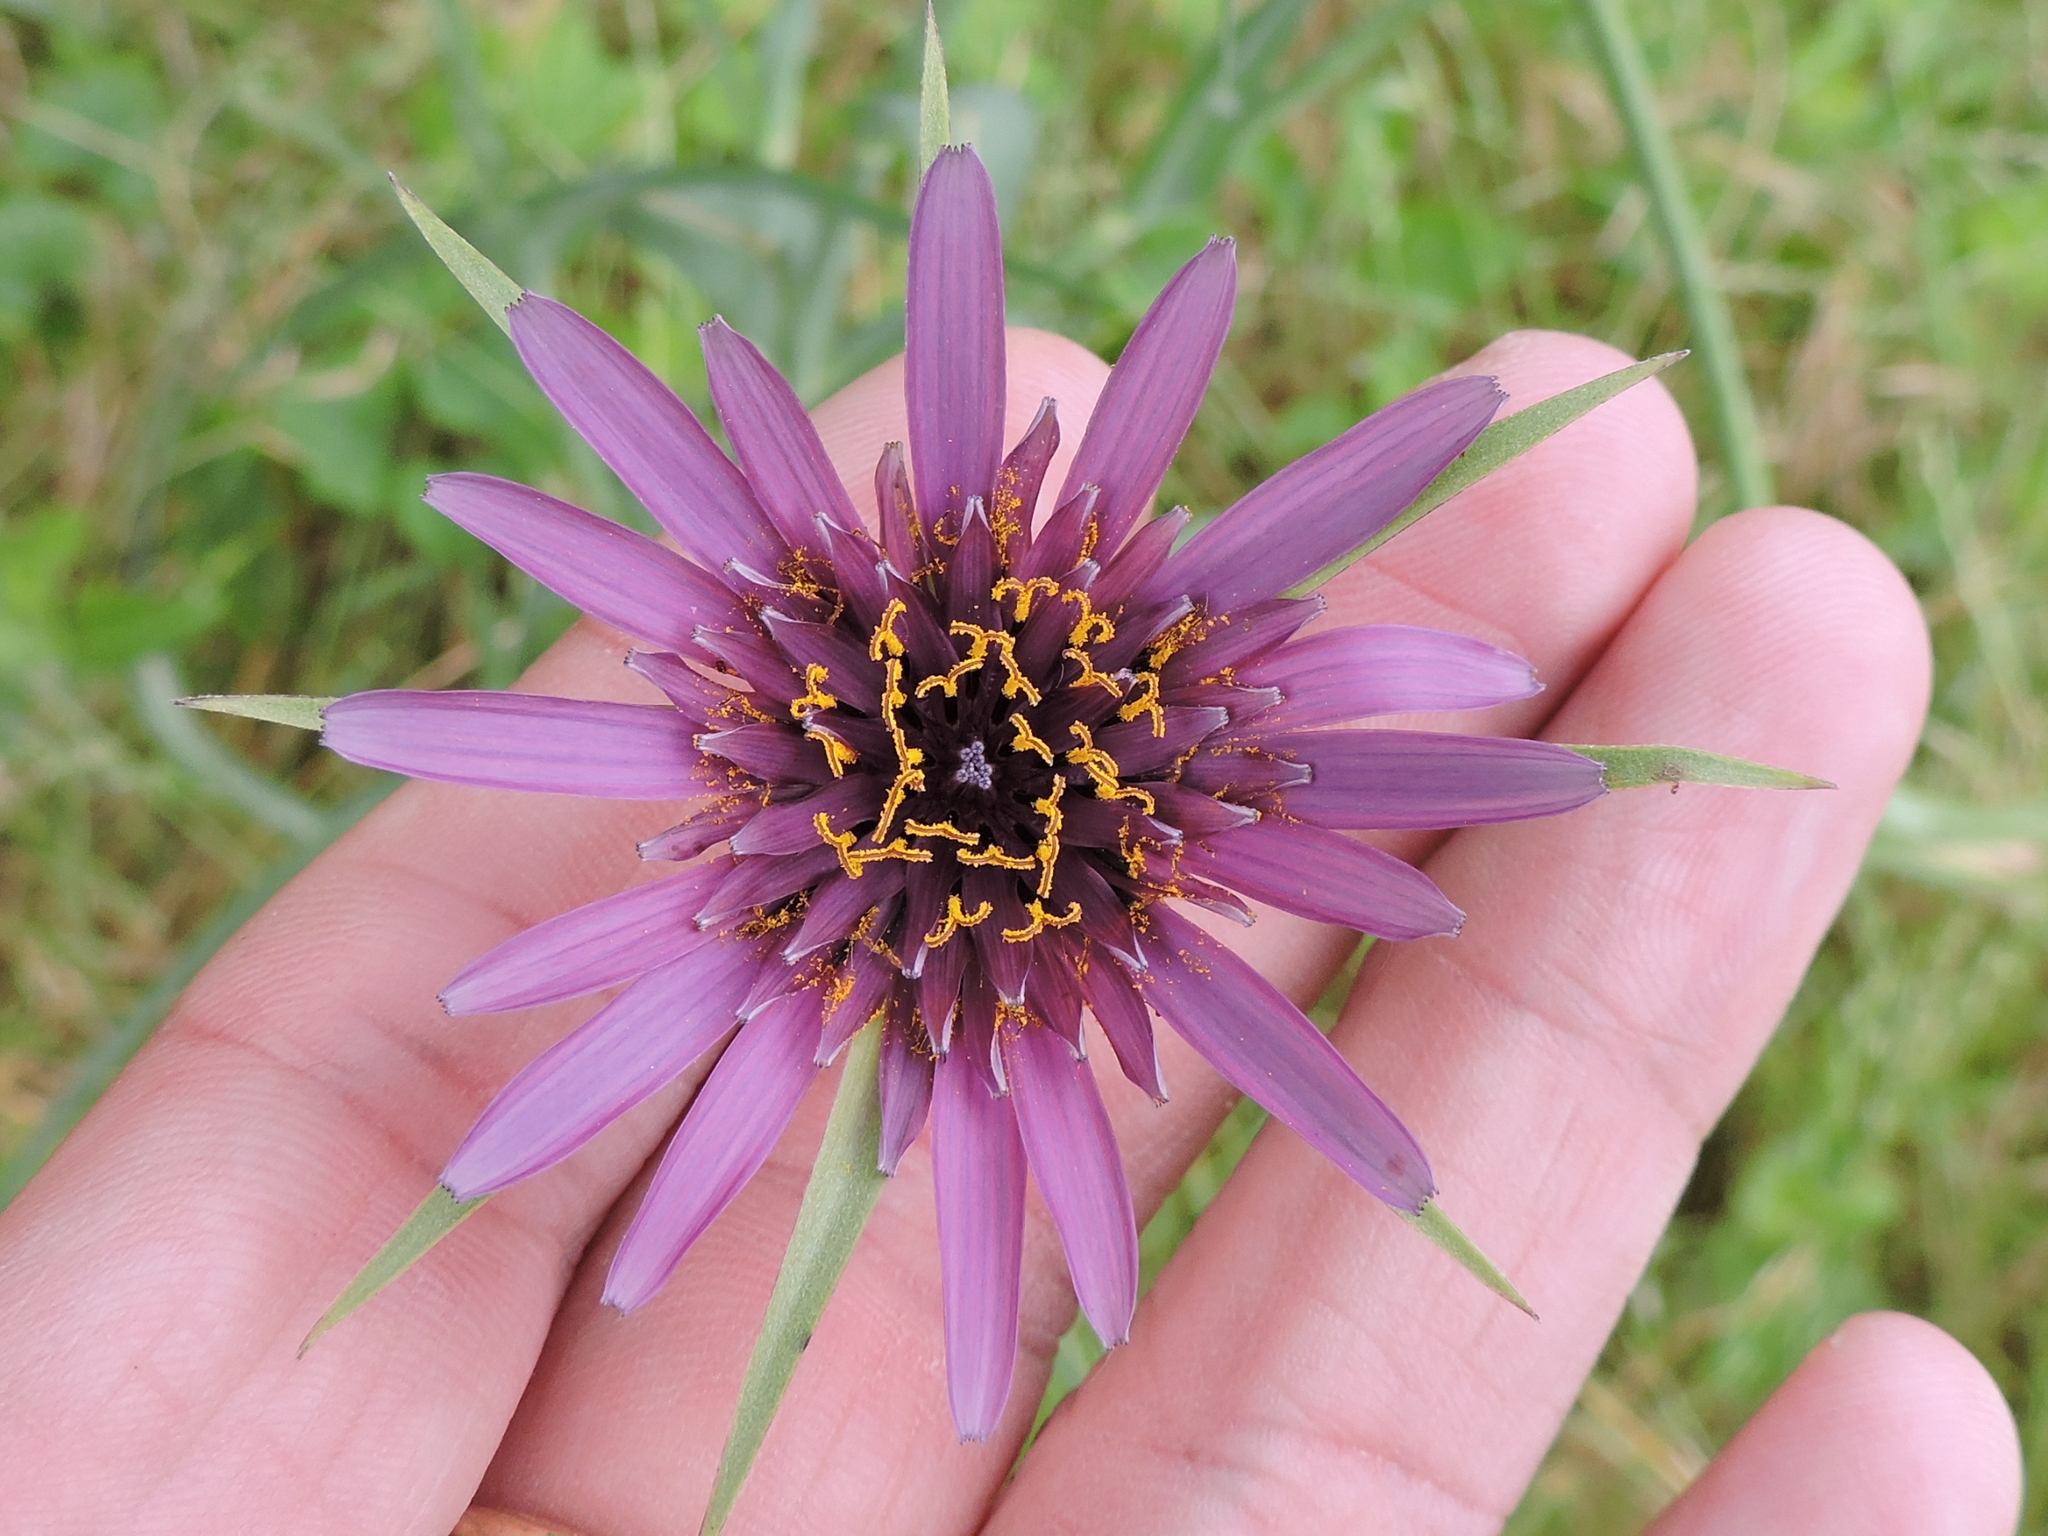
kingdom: Plantae
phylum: Tracheophyta
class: Magnoliopsida
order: Asterales
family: Asteraceae
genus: Tragopogon
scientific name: Tragopogon porrifolius
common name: Salsify
